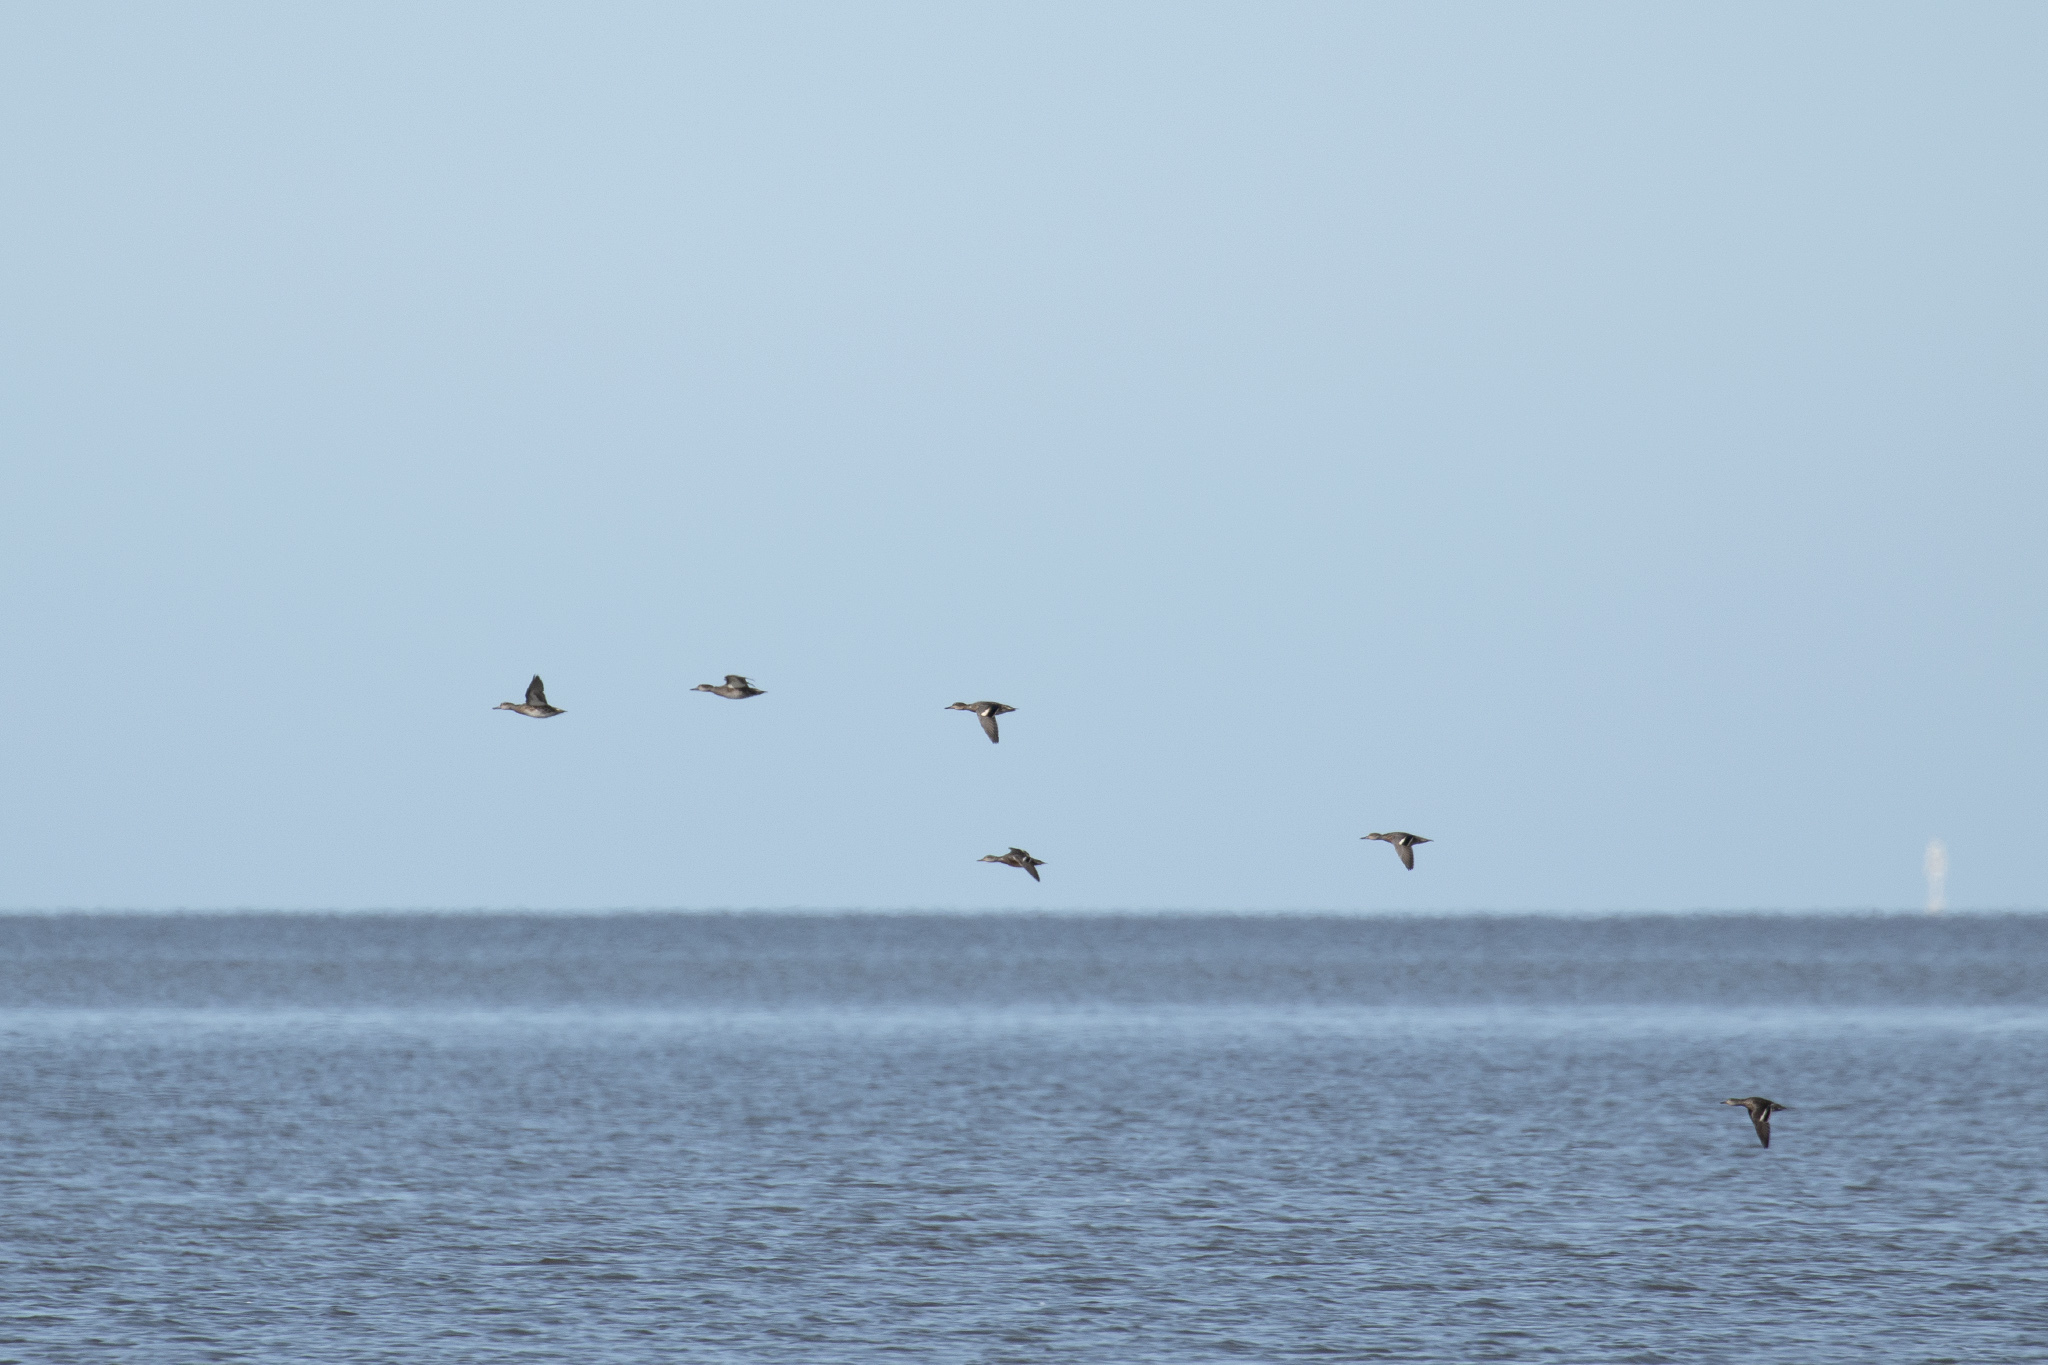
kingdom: Animalia
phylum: Chordata
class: Aves
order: Anseriformes
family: Anatidae
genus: Anas
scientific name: Anas crecca
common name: Eurasian teal
